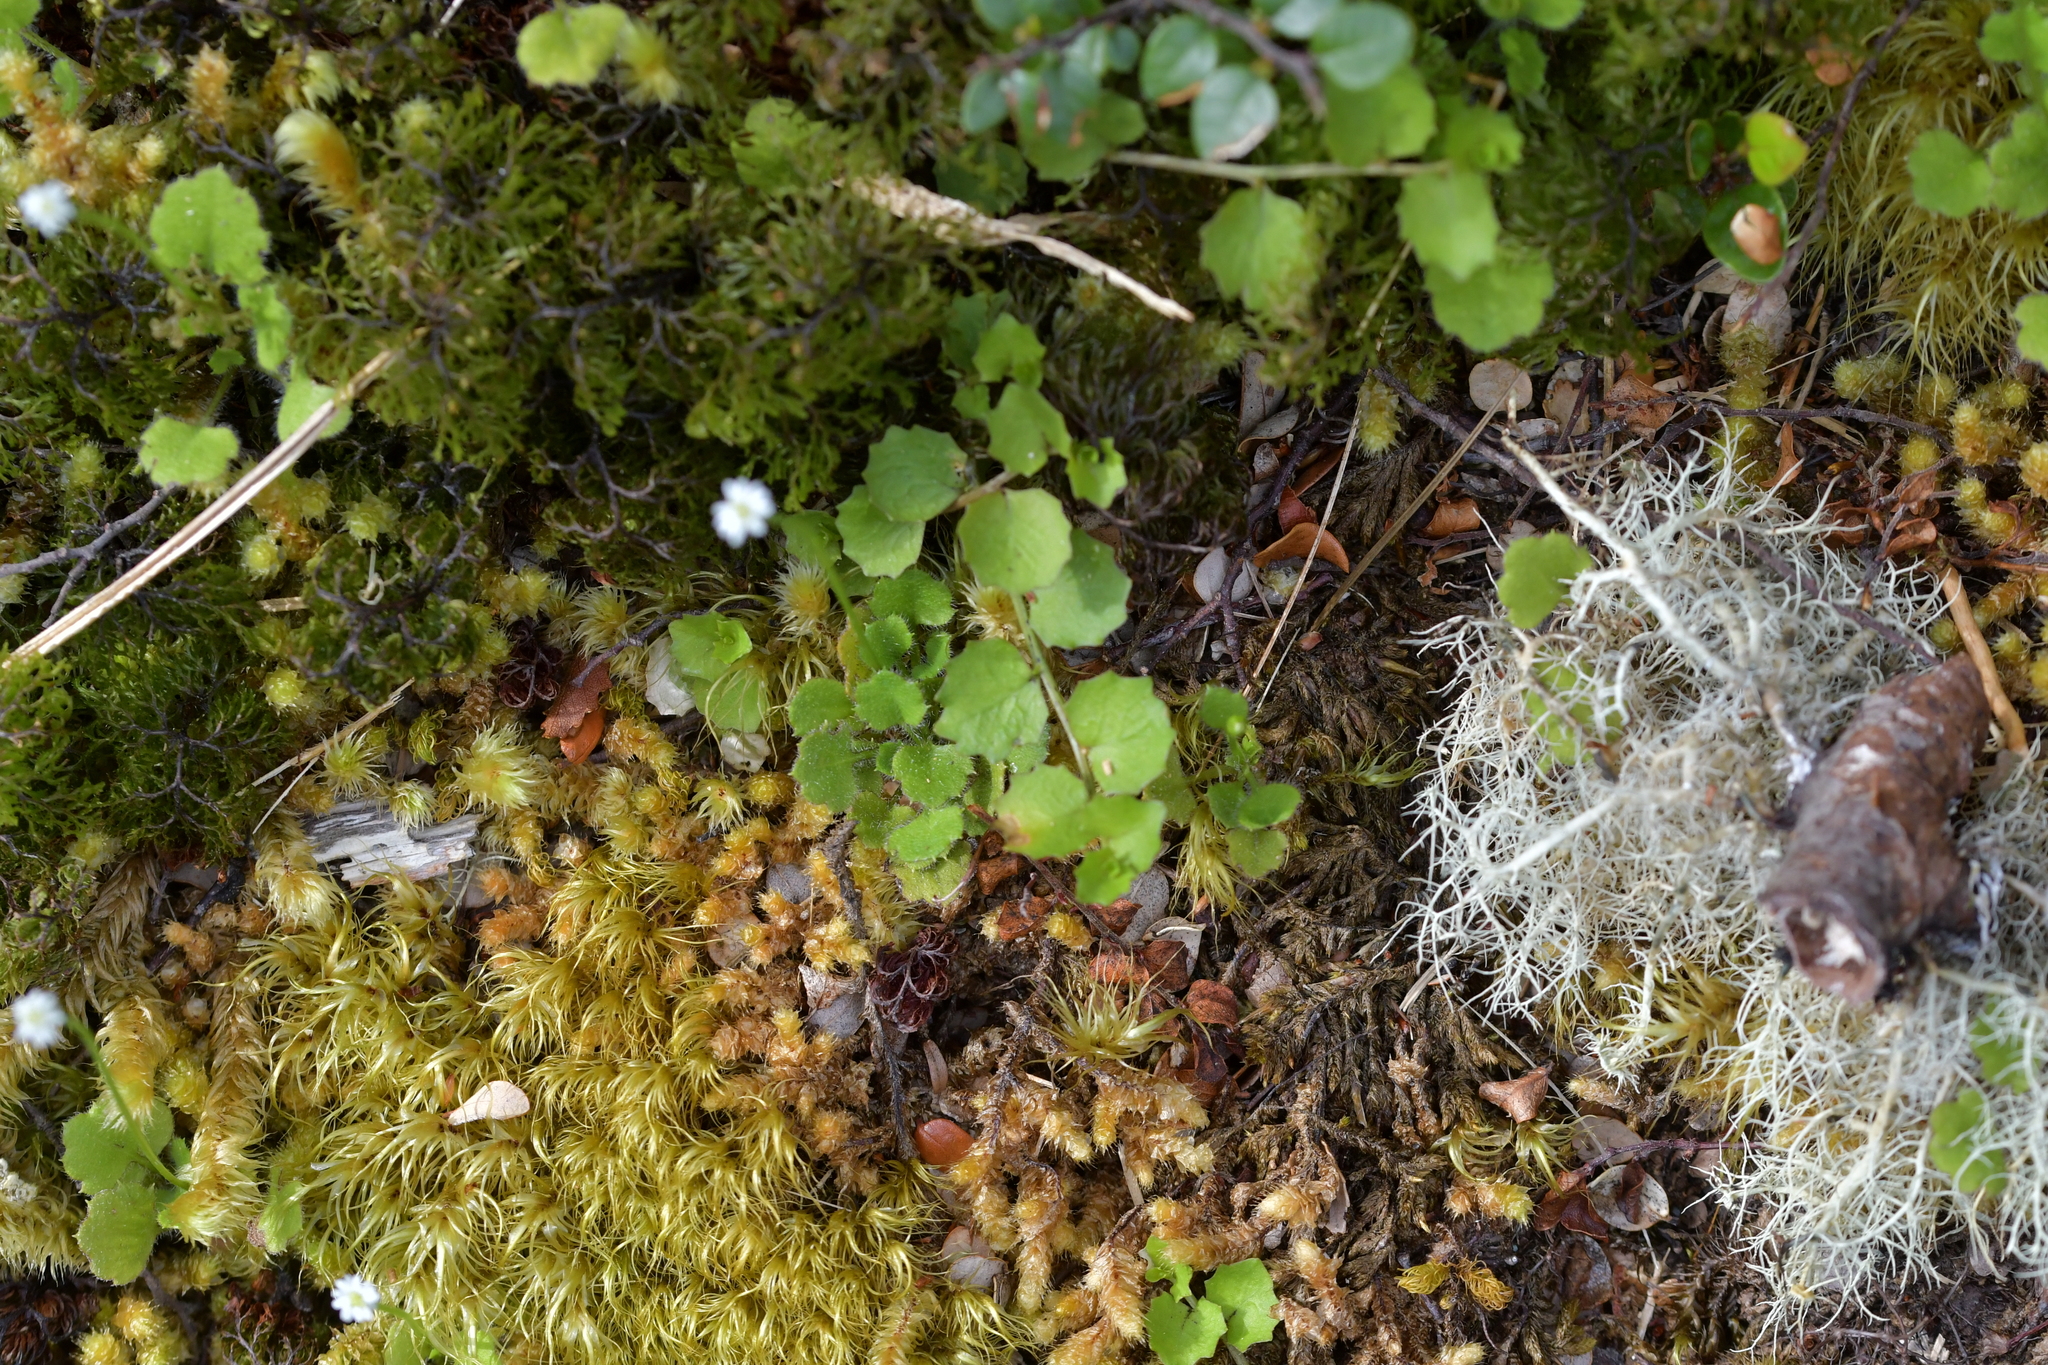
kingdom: Plantae
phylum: Tracheophyta
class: Magnoliopsida
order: Asterales
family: Asteraceae
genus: Lagenophora
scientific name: Lagenophora strangulata
